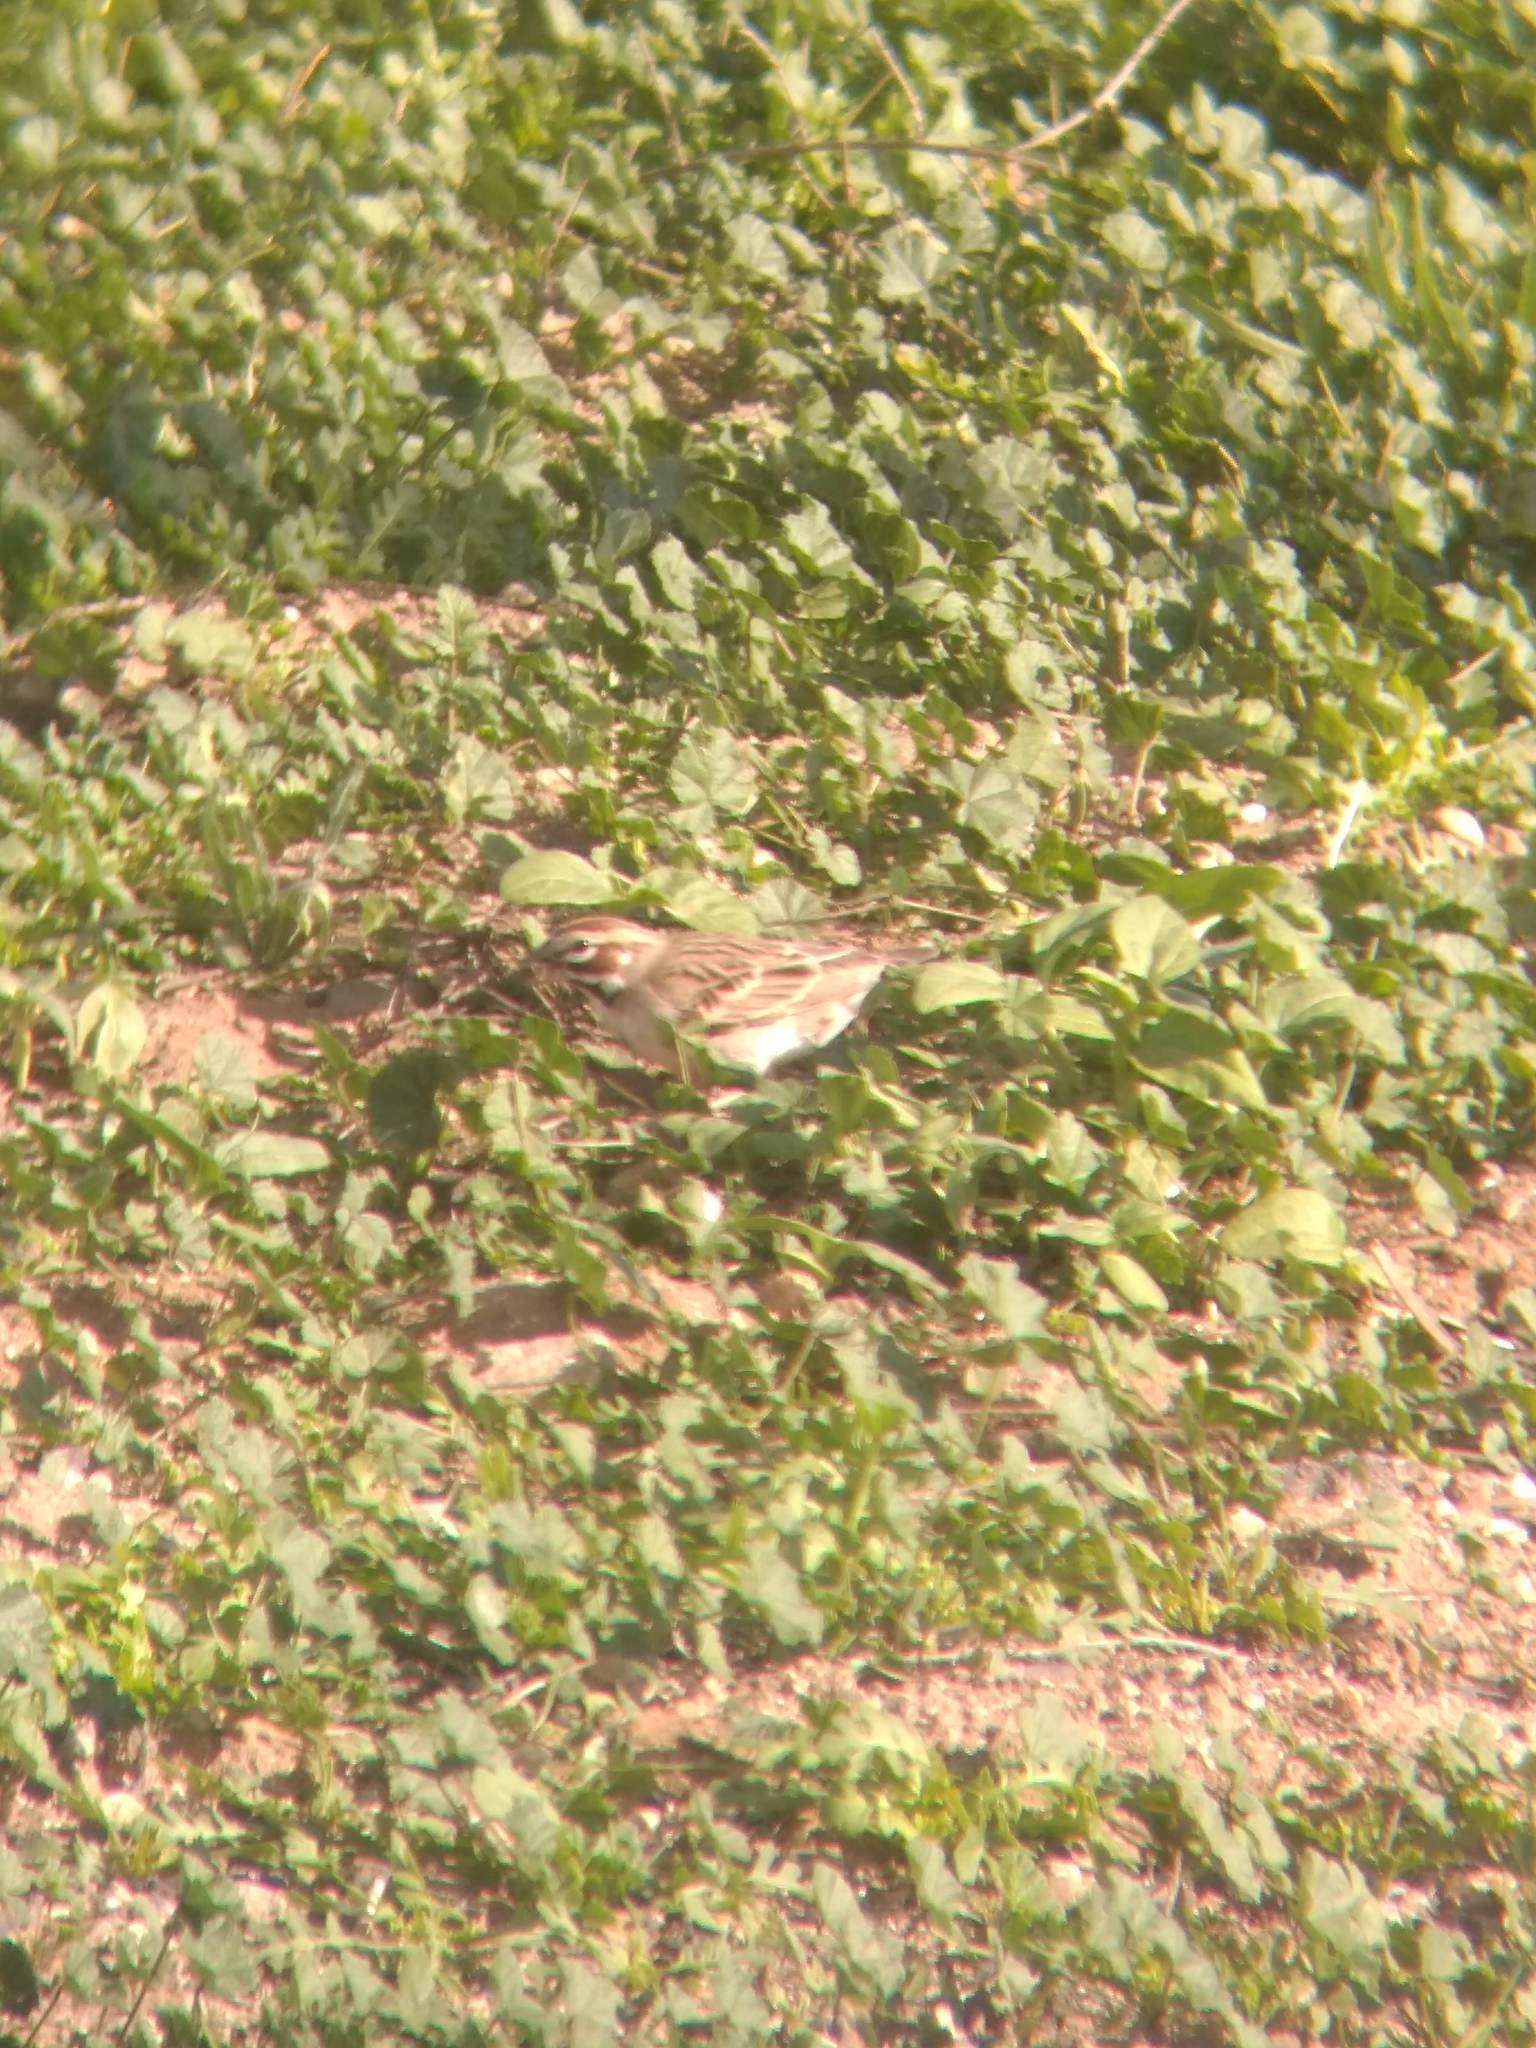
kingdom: Animalia
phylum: Chordata
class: Aves
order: Passeriformes
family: Passerellidae
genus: Chondestes
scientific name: Chondestes grammacus
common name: Lark sparrow
